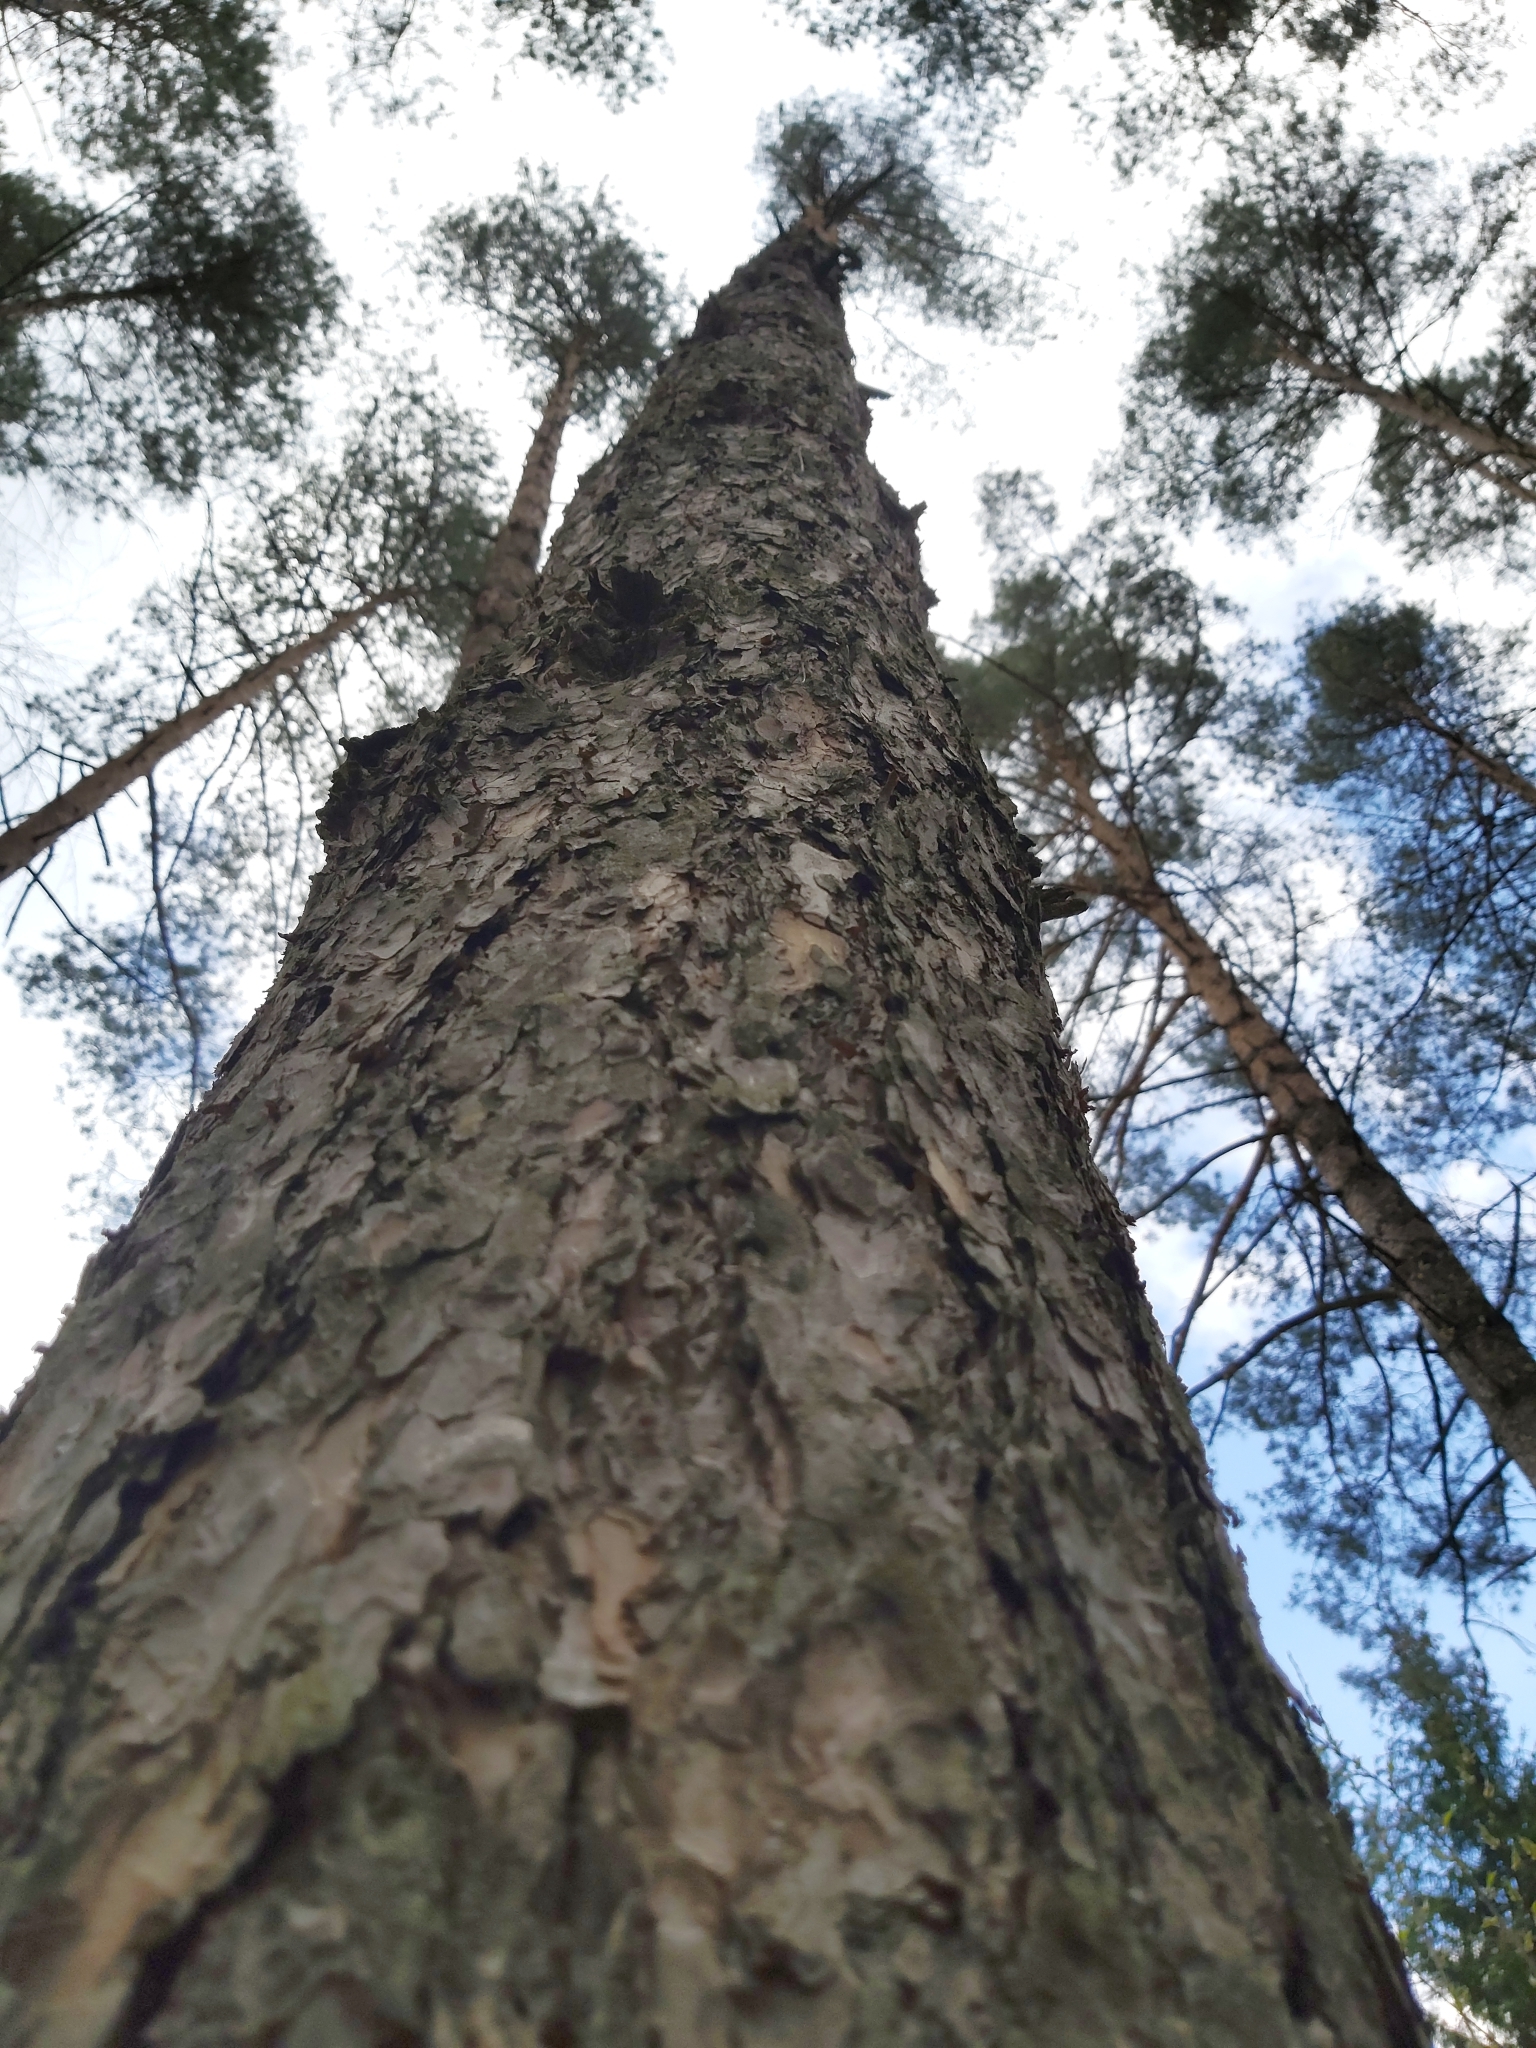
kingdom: Plantae
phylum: Tracheophyta
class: Pinopsida
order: Pinales
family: Pinaceae
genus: Pinus
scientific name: Pinus sylvestris
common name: Scots pine
